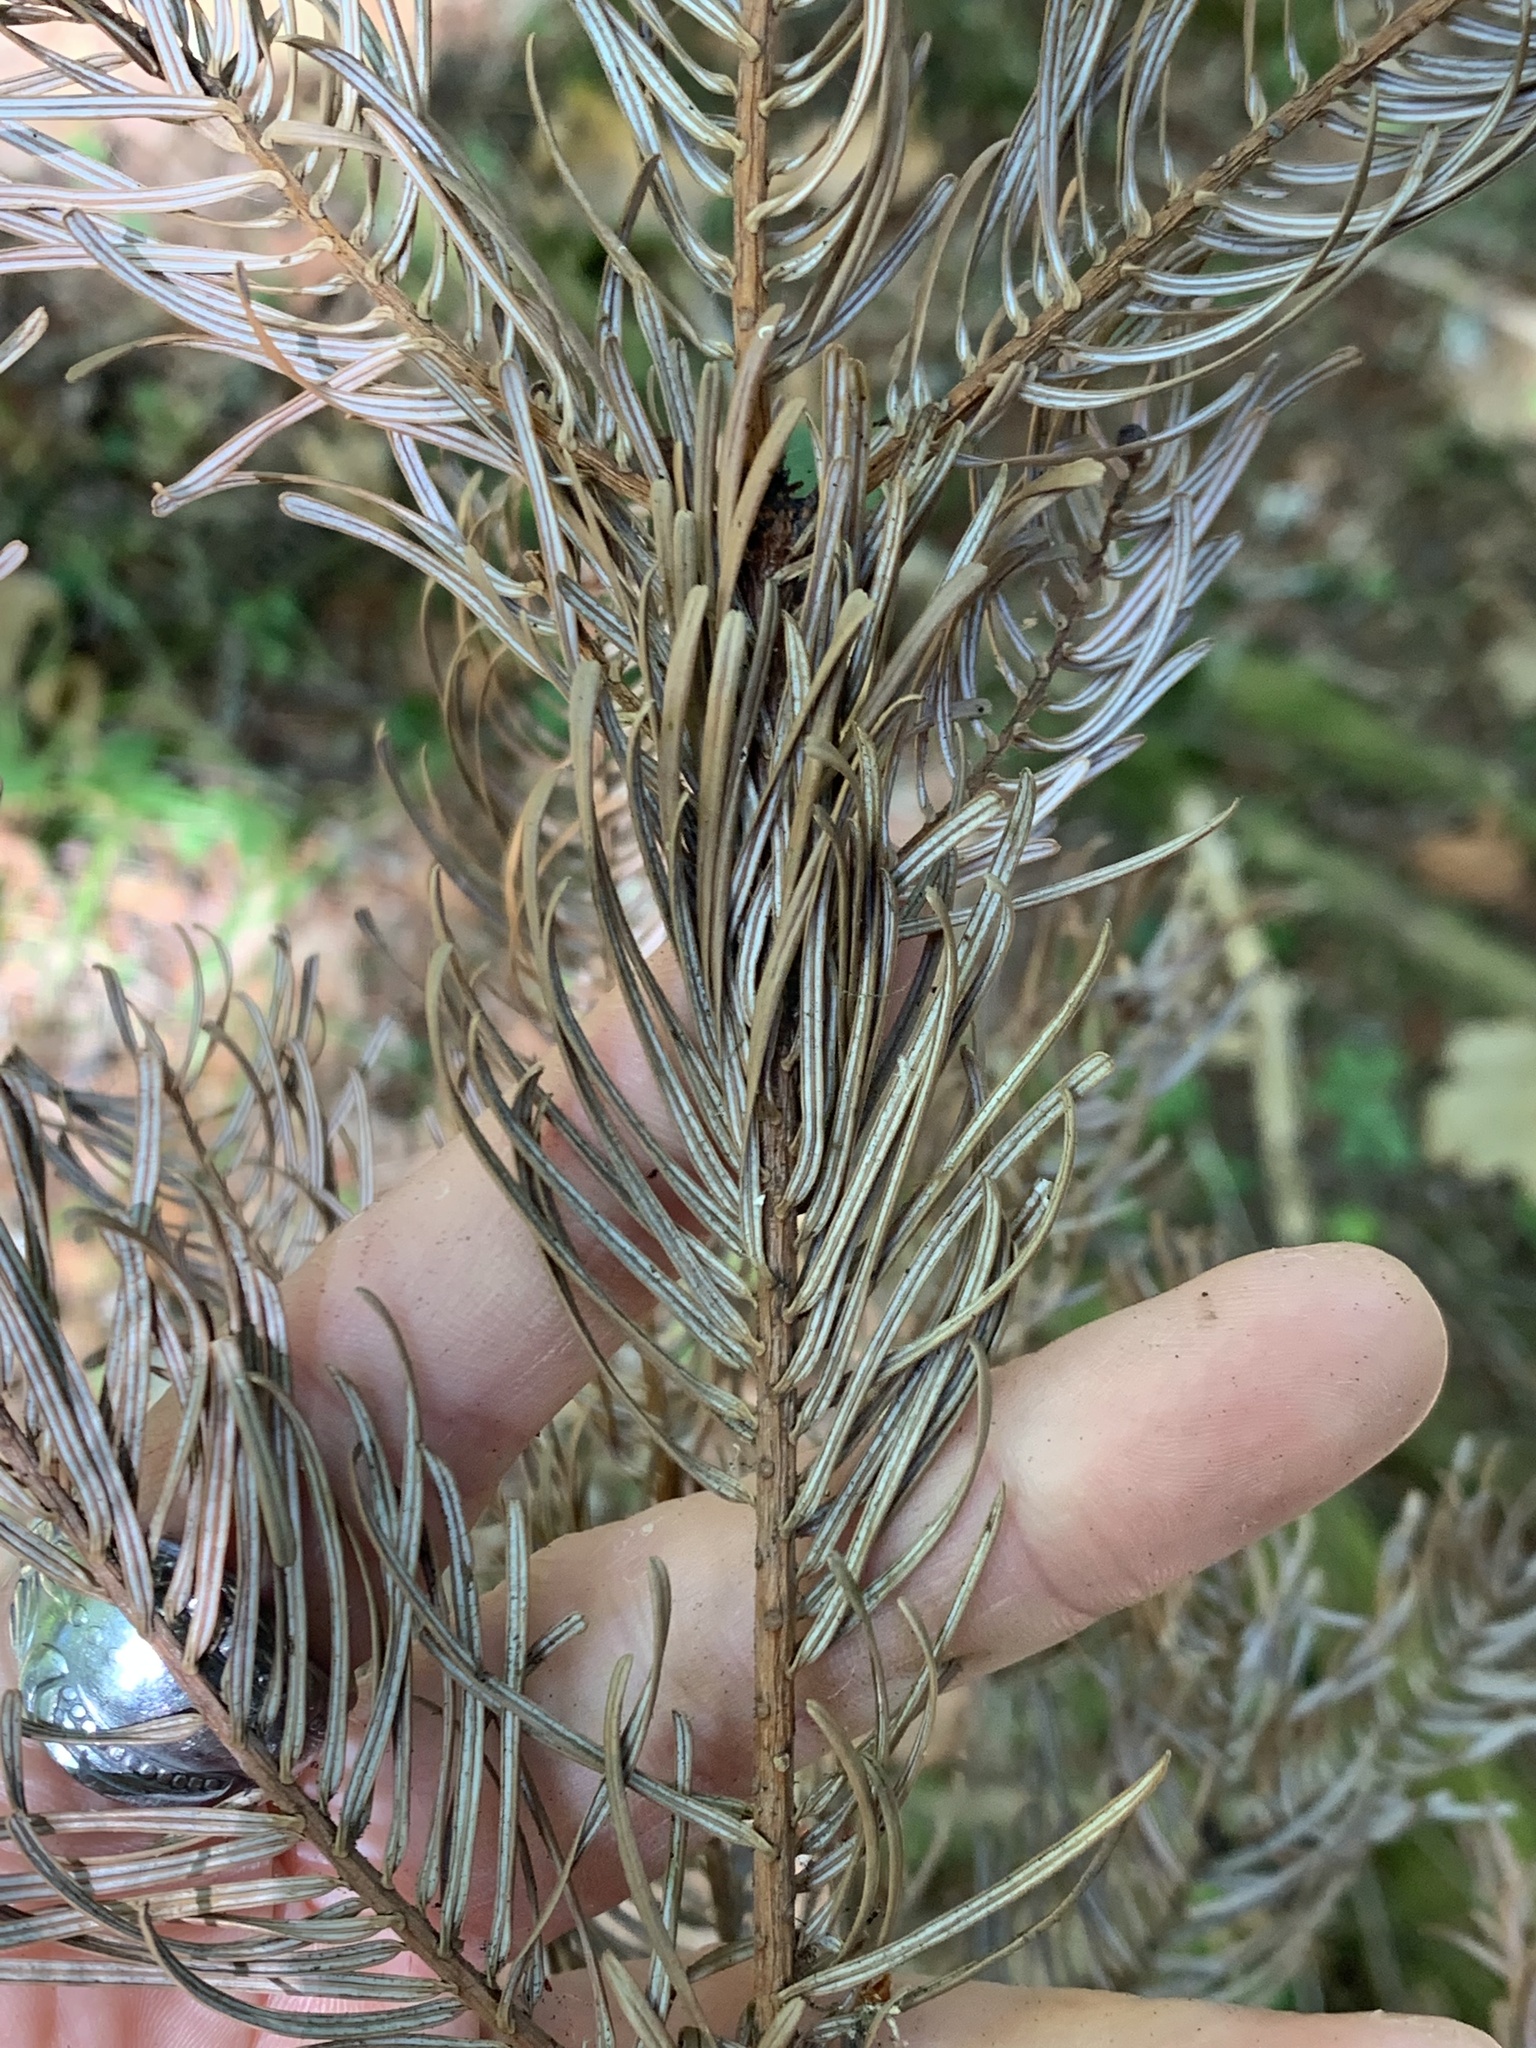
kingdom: Plantae
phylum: Tracheophyta
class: Pinopsida
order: Pinales
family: Pinaceae
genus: Abies
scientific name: Abies grandis
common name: Giant fir
